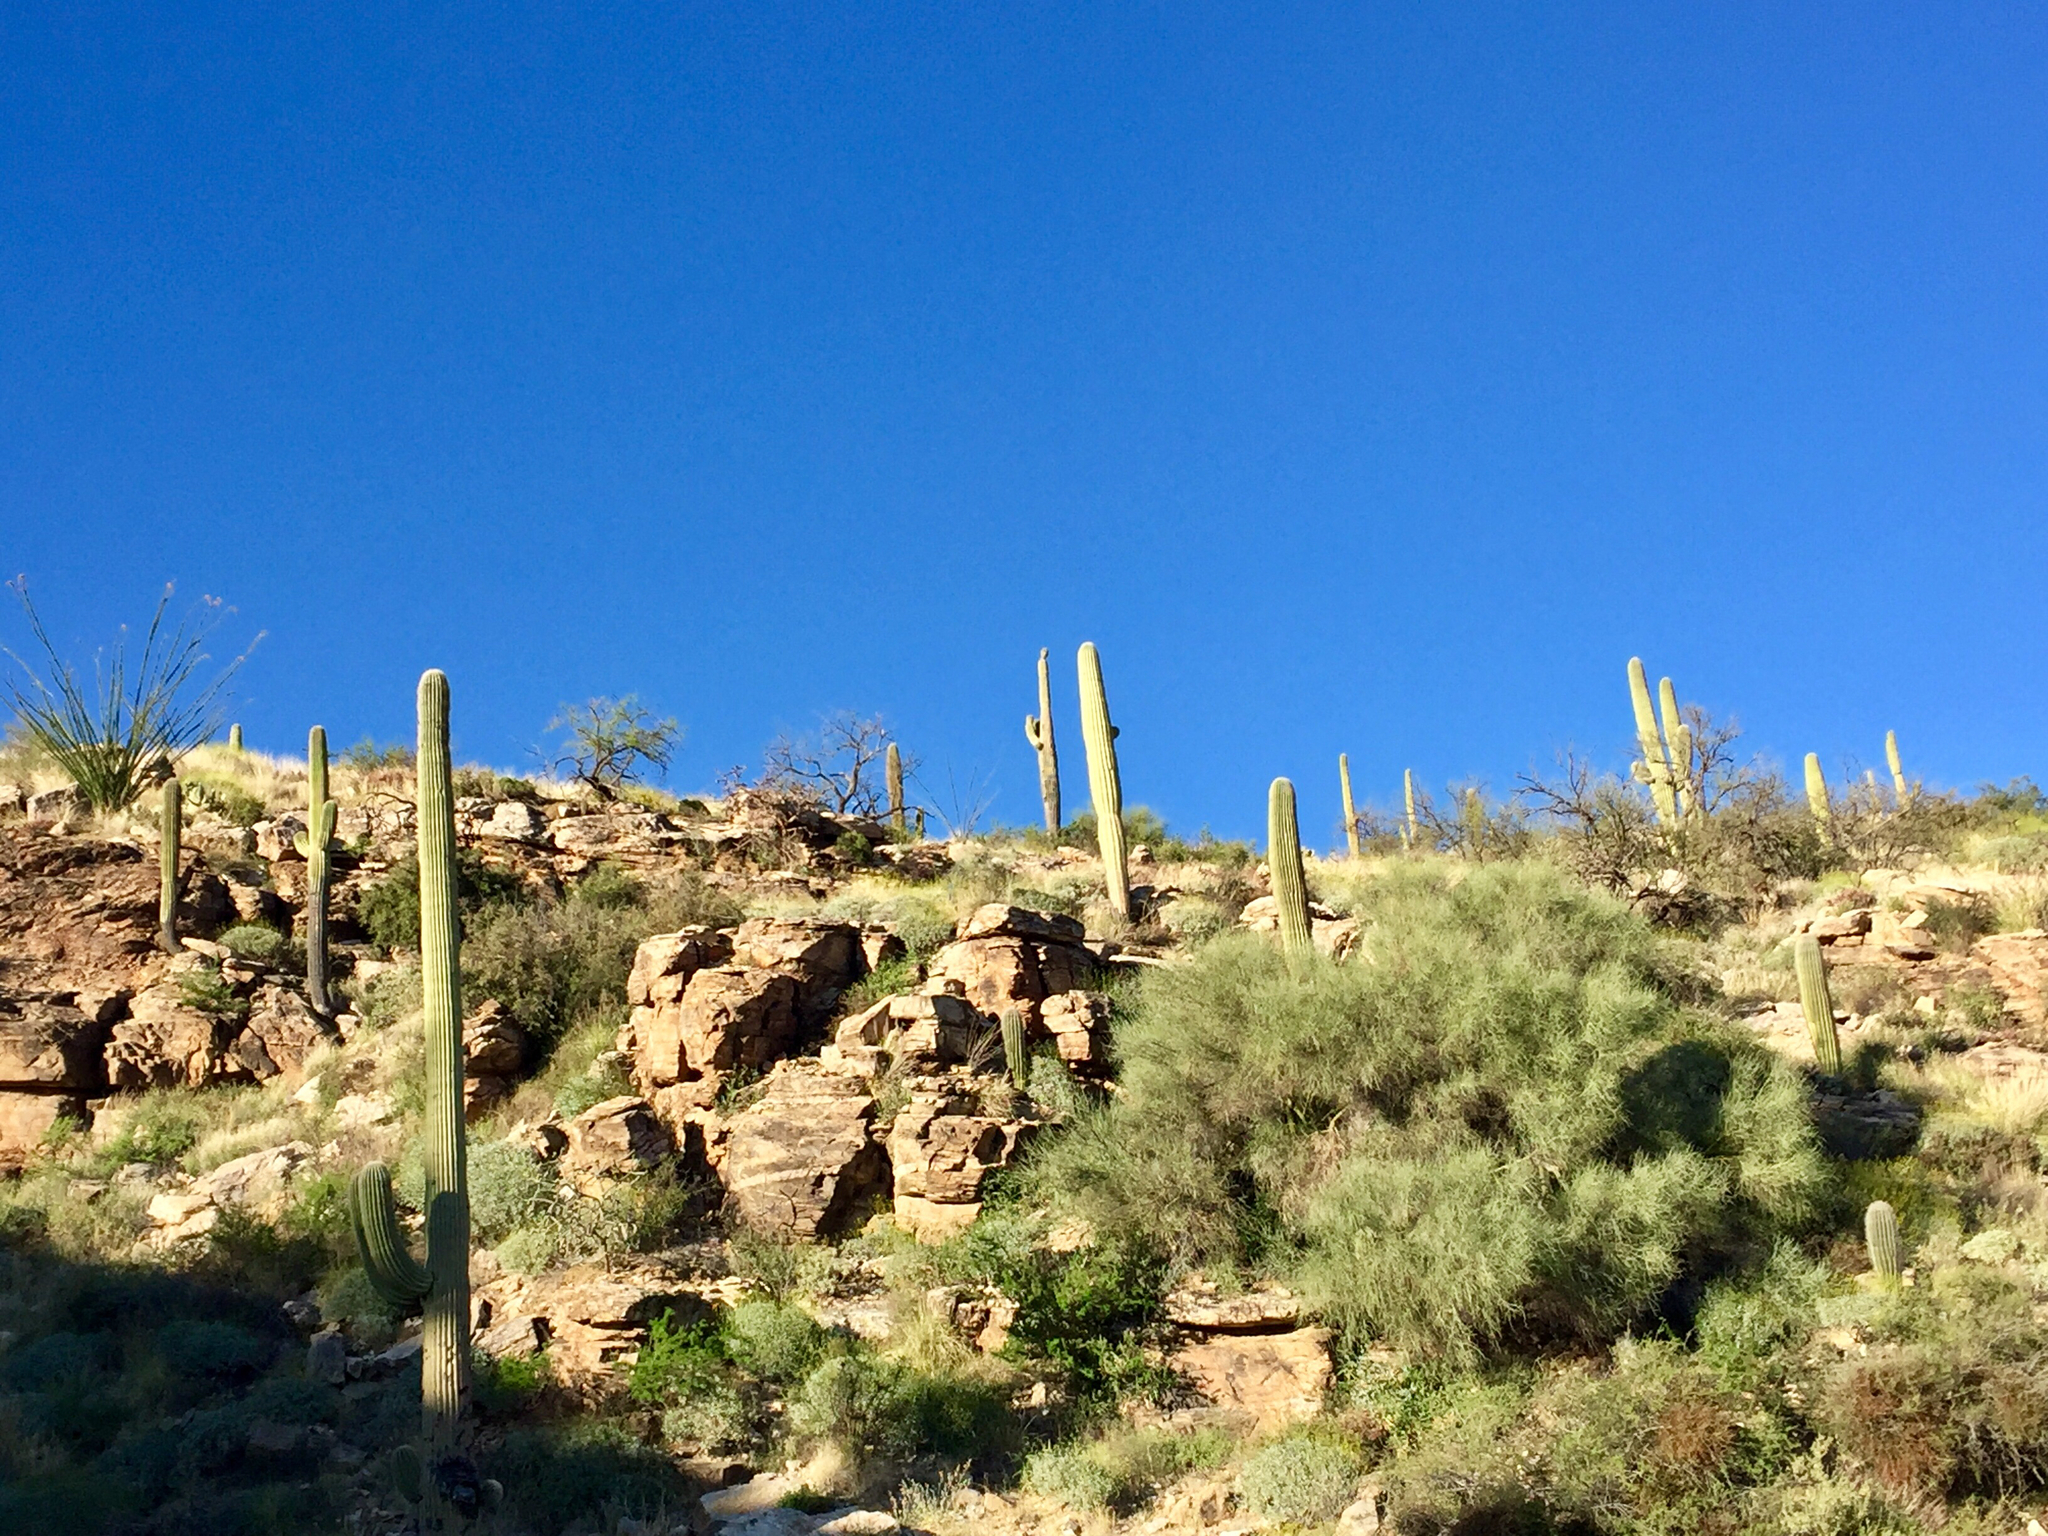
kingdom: Plantae
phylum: Tracheophyta
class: Magnoliopsida
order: Caryophyllales
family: Cactaceae
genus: Carnegiea
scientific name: Carnegiea gigantea
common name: Saguaro
